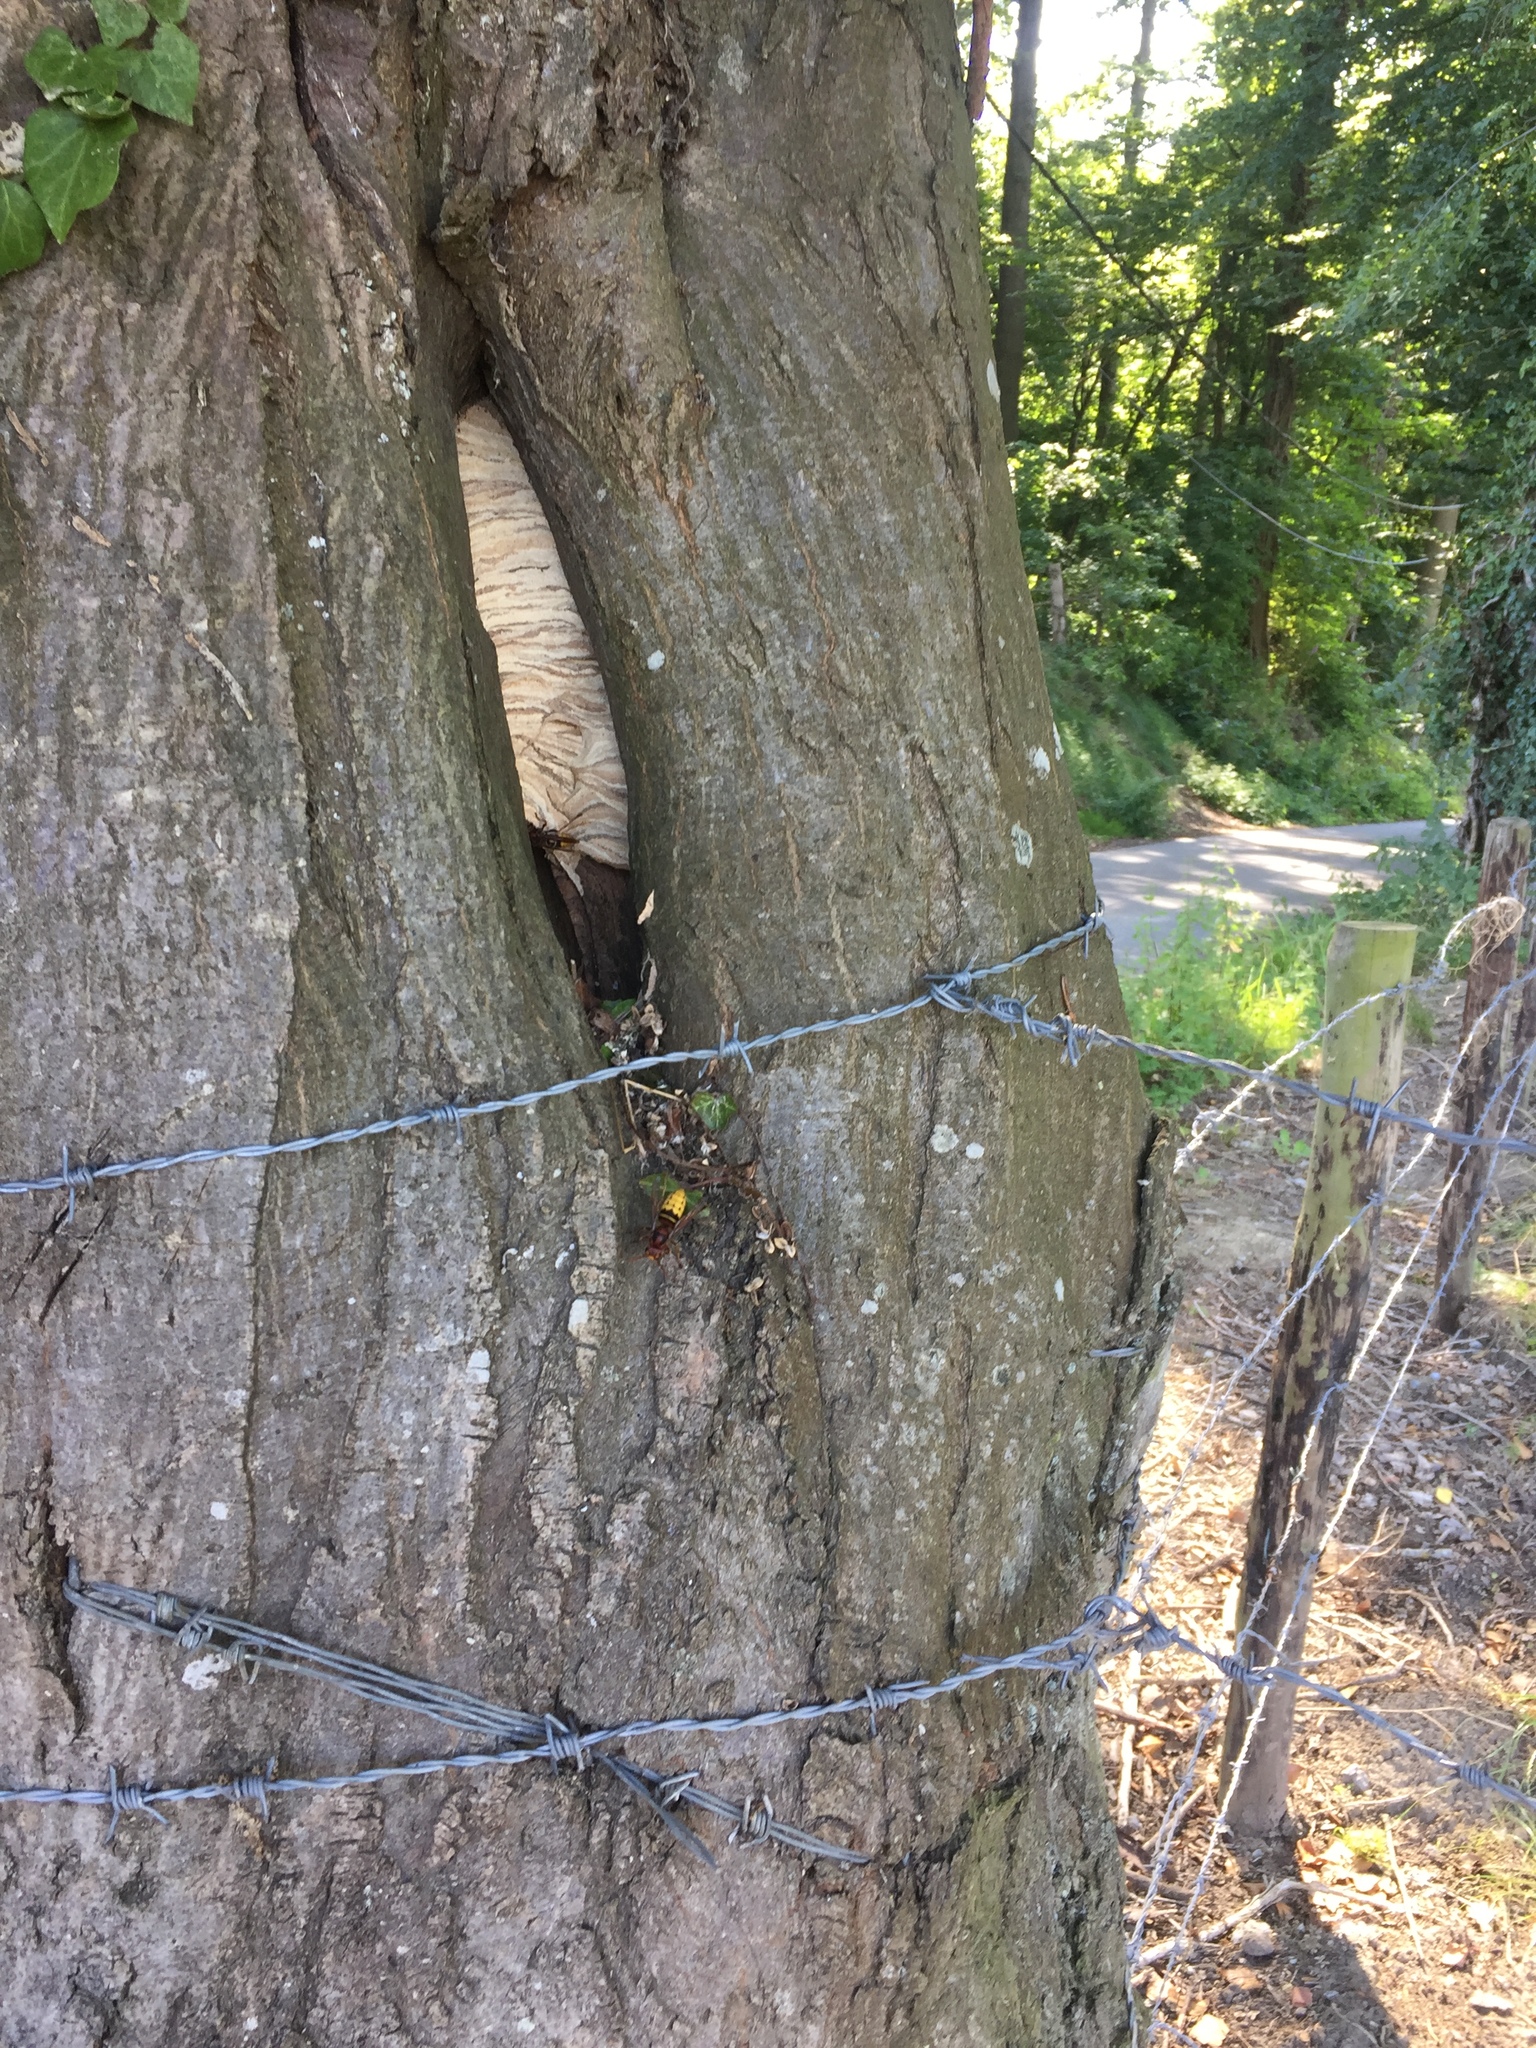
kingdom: Animalia
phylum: Arthropoda
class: Insecta
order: Hymenoptera
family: Vespidae
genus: Vespa
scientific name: Vespa crabro
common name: Hornet
